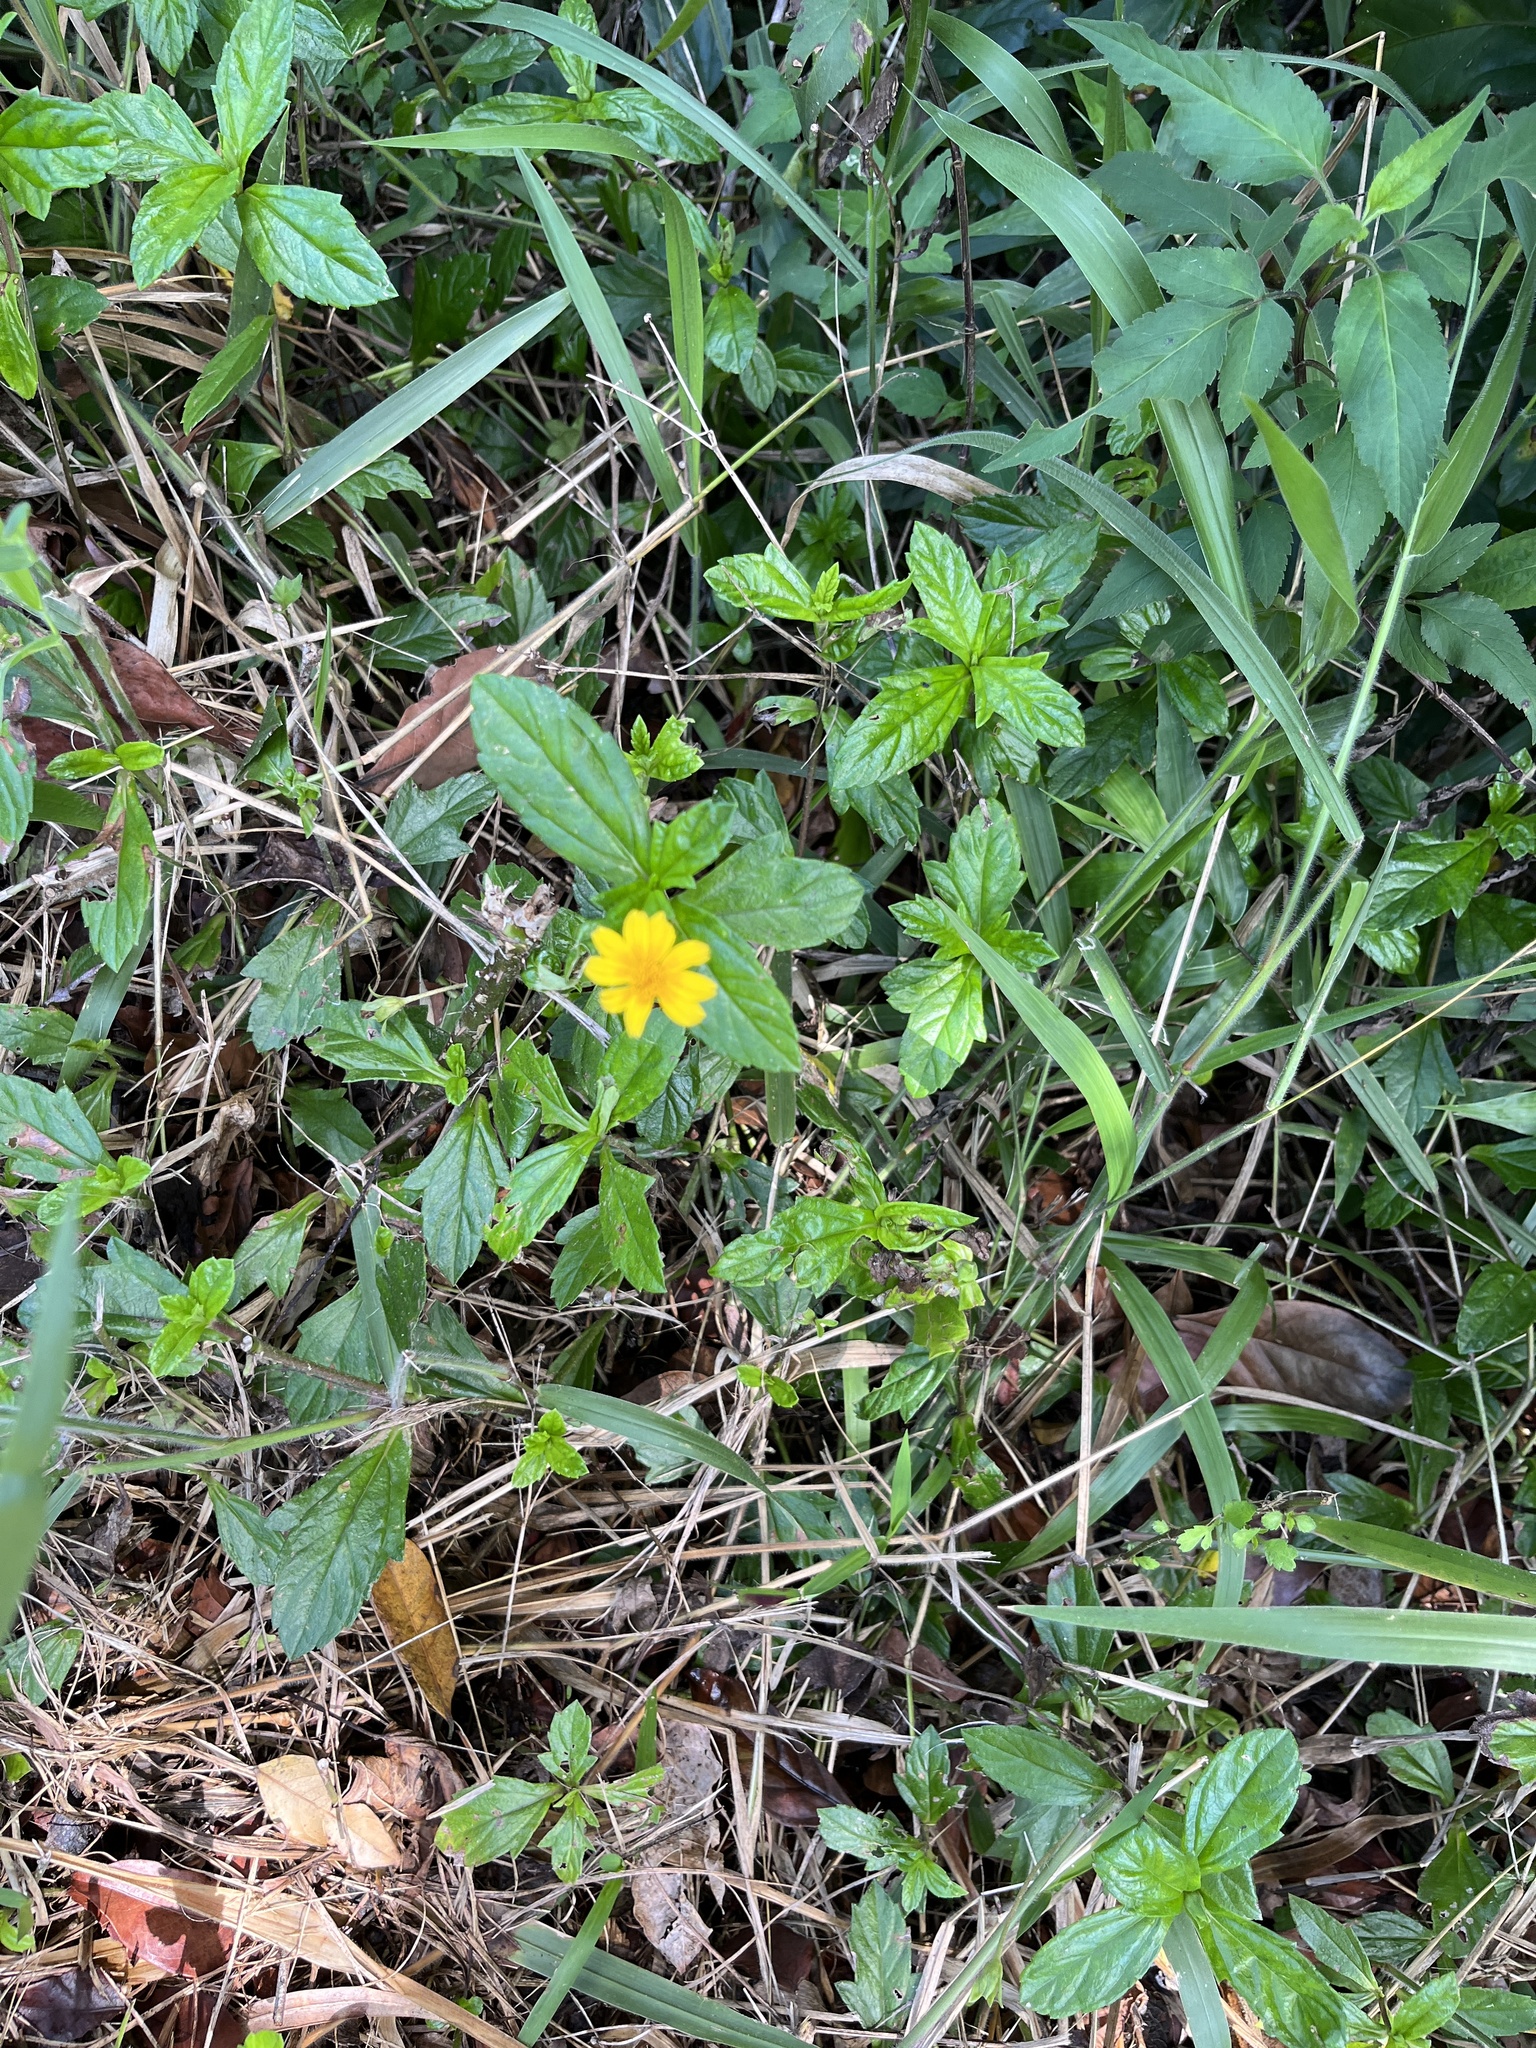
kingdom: Plantae
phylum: Tracheophyta
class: Magnoliopsida
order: Asterales
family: Asteraceae
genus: Sphagneticola
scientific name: Sphagneticola trilobata
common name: Bay biscayne creeping-oxeye
